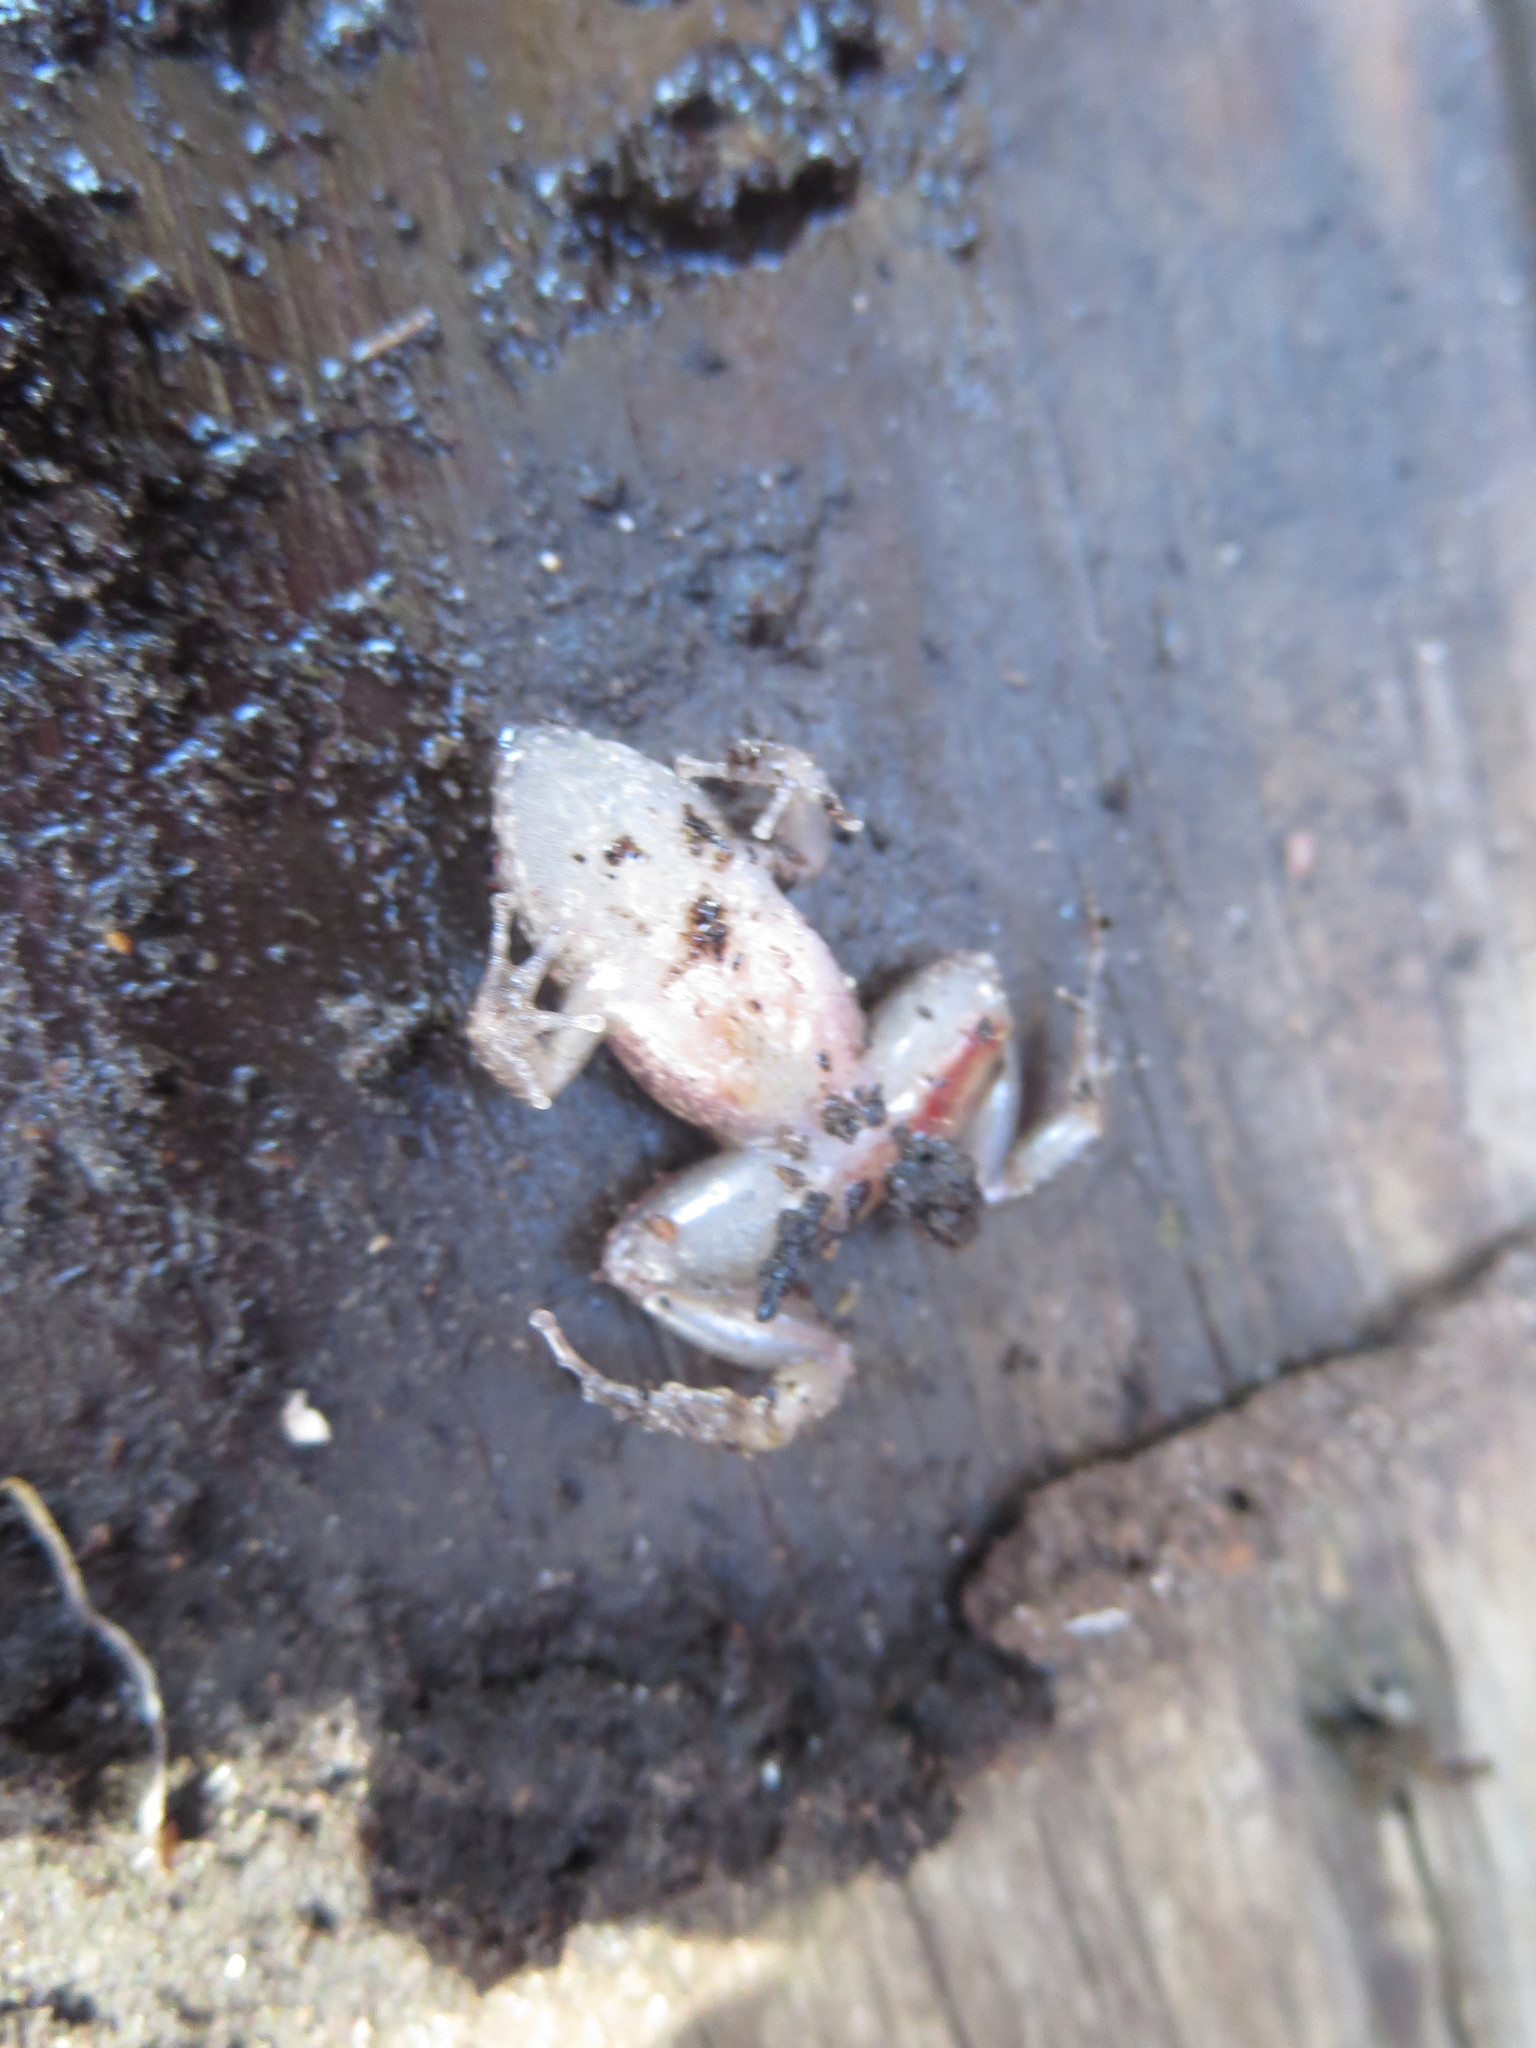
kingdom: Animalia
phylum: Chordata
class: Amphibia
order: Anura
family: Eleutherodactylidae
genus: Eleutherodactylus
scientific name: Eleutherodactylus planirostris
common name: Greenhouse frog
